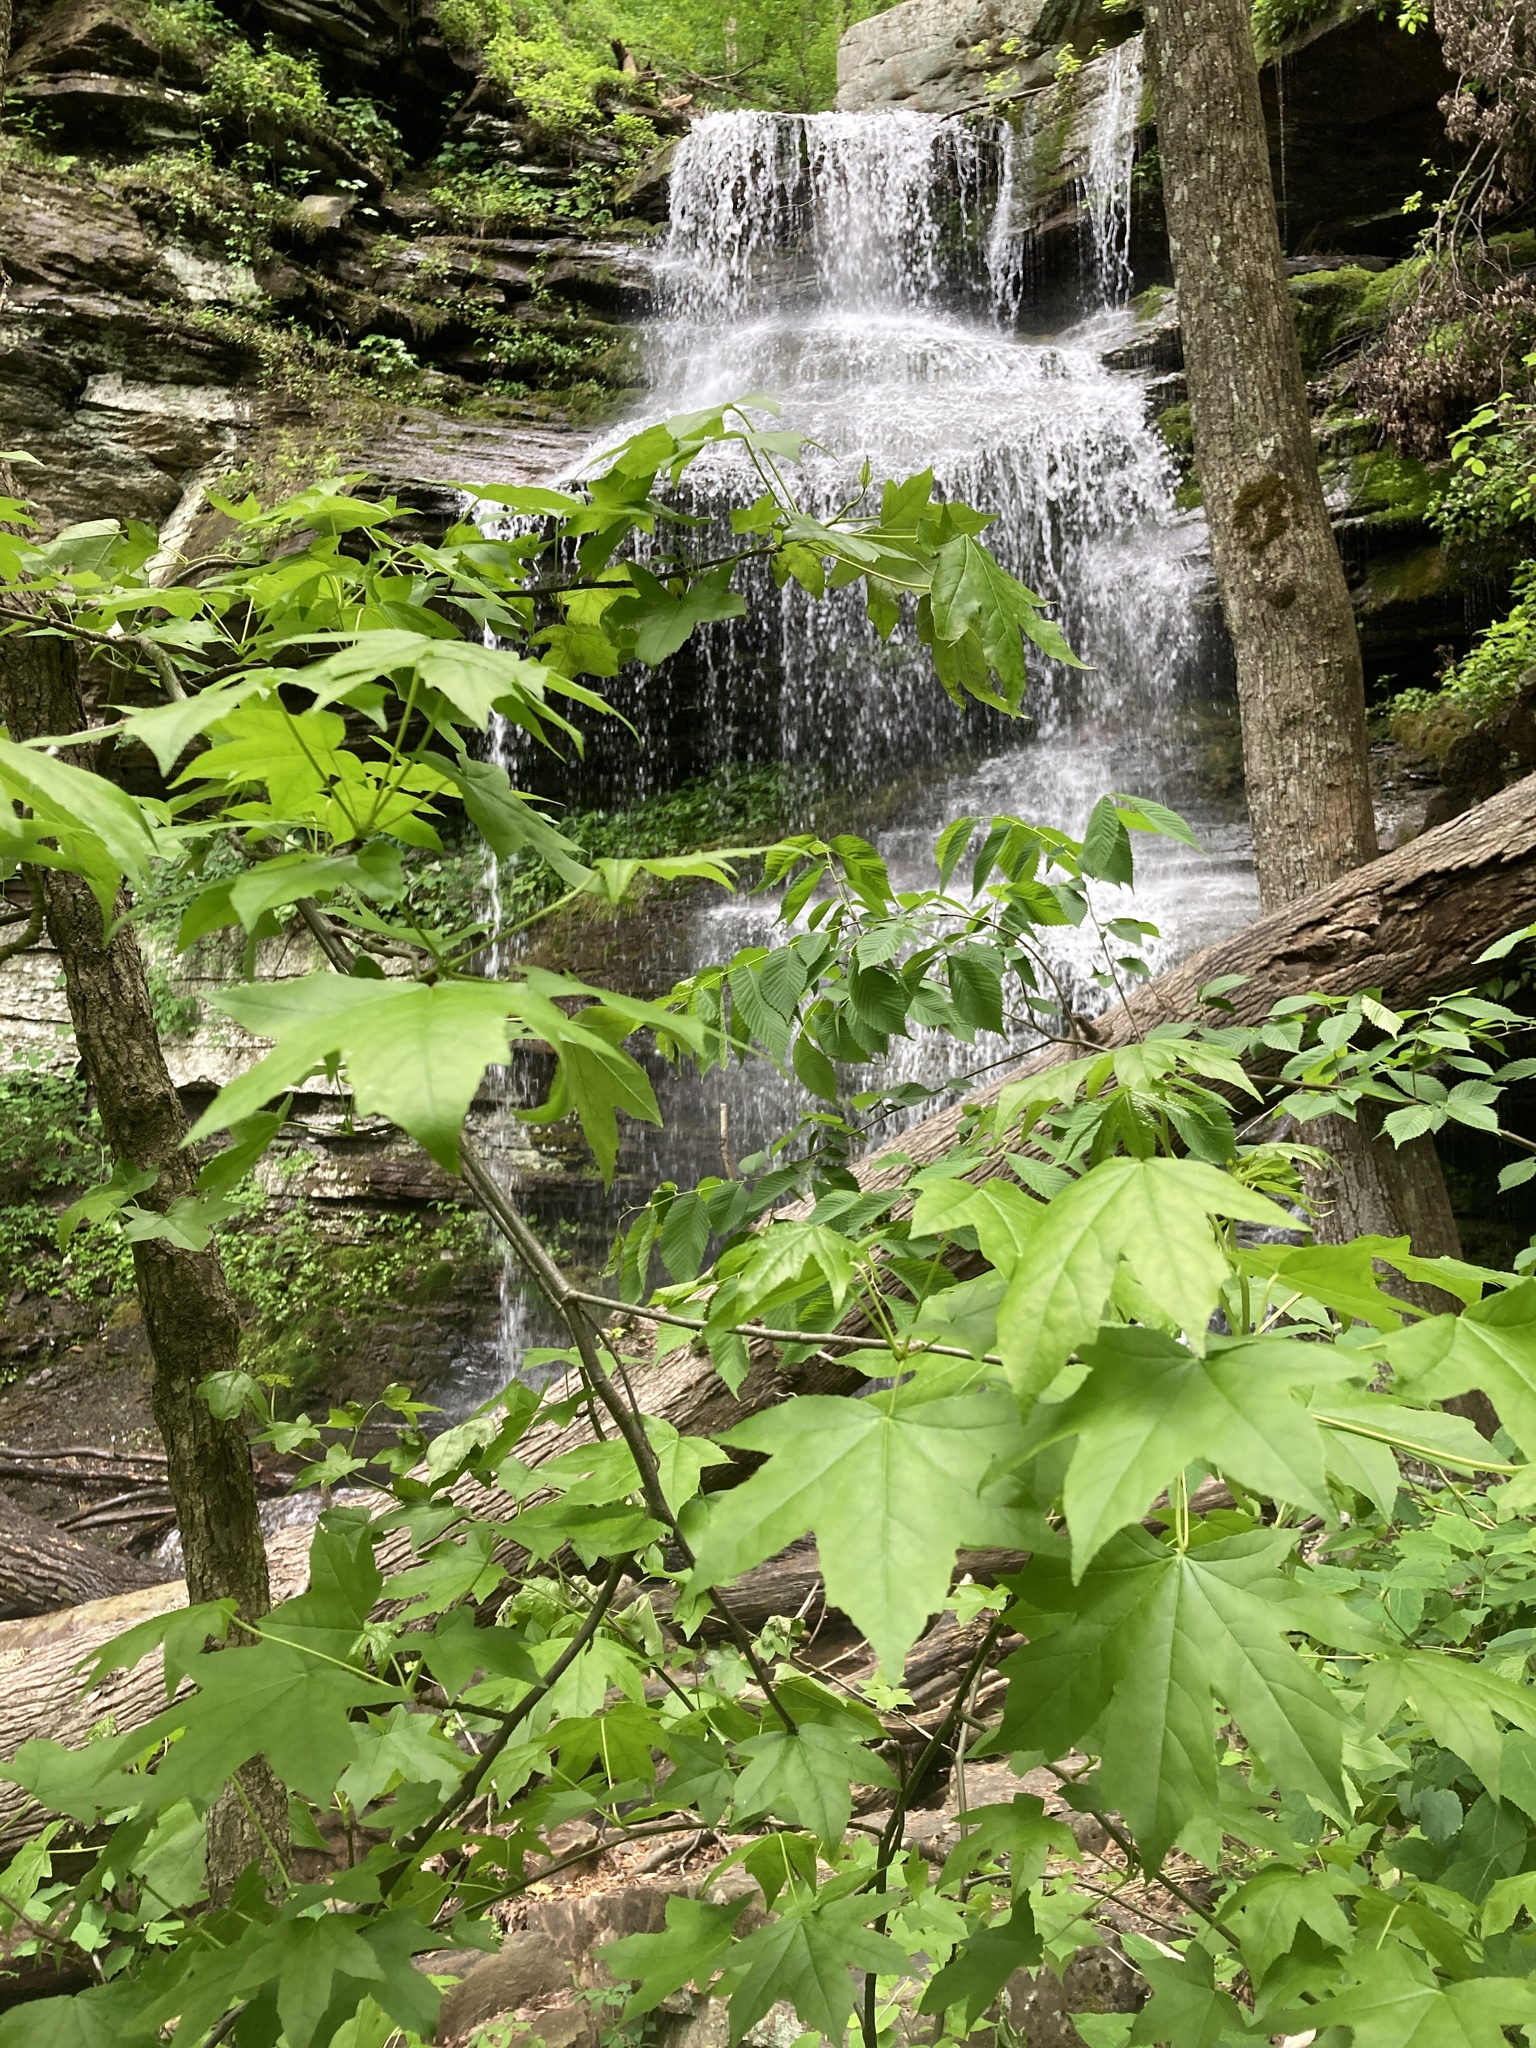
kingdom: Plantae
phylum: Tracheophyta
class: Magnoliopsida
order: Saxifragales
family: Altingiaceae
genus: Liquidambar
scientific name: Liquidambar styraciflua
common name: Sweet gum
